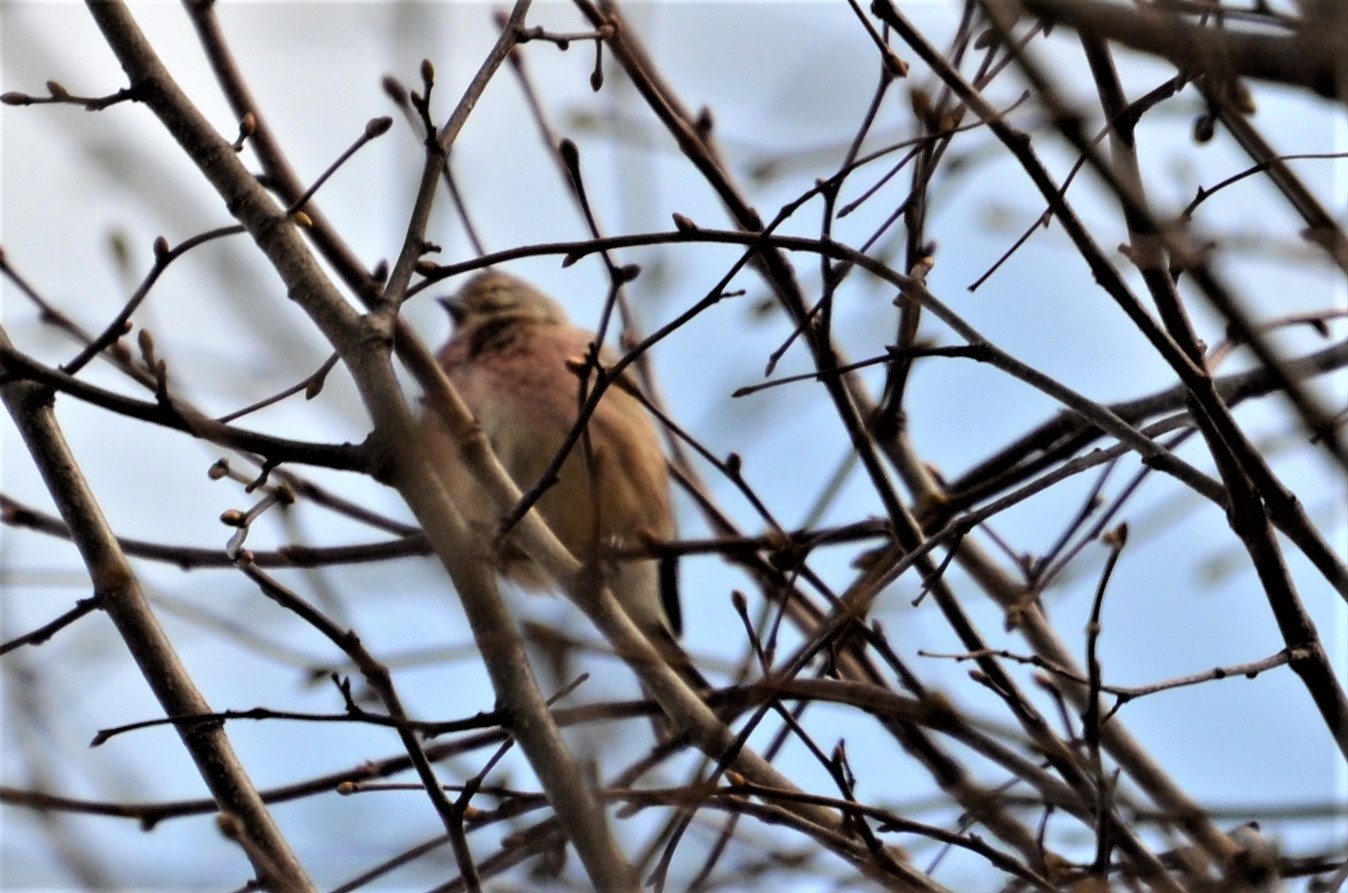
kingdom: Animalia
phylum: Chordata
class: Aves
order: Passeriformes
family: Fringillidae
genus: Linaria
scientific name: Linaria cannabina
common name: Common linnet
